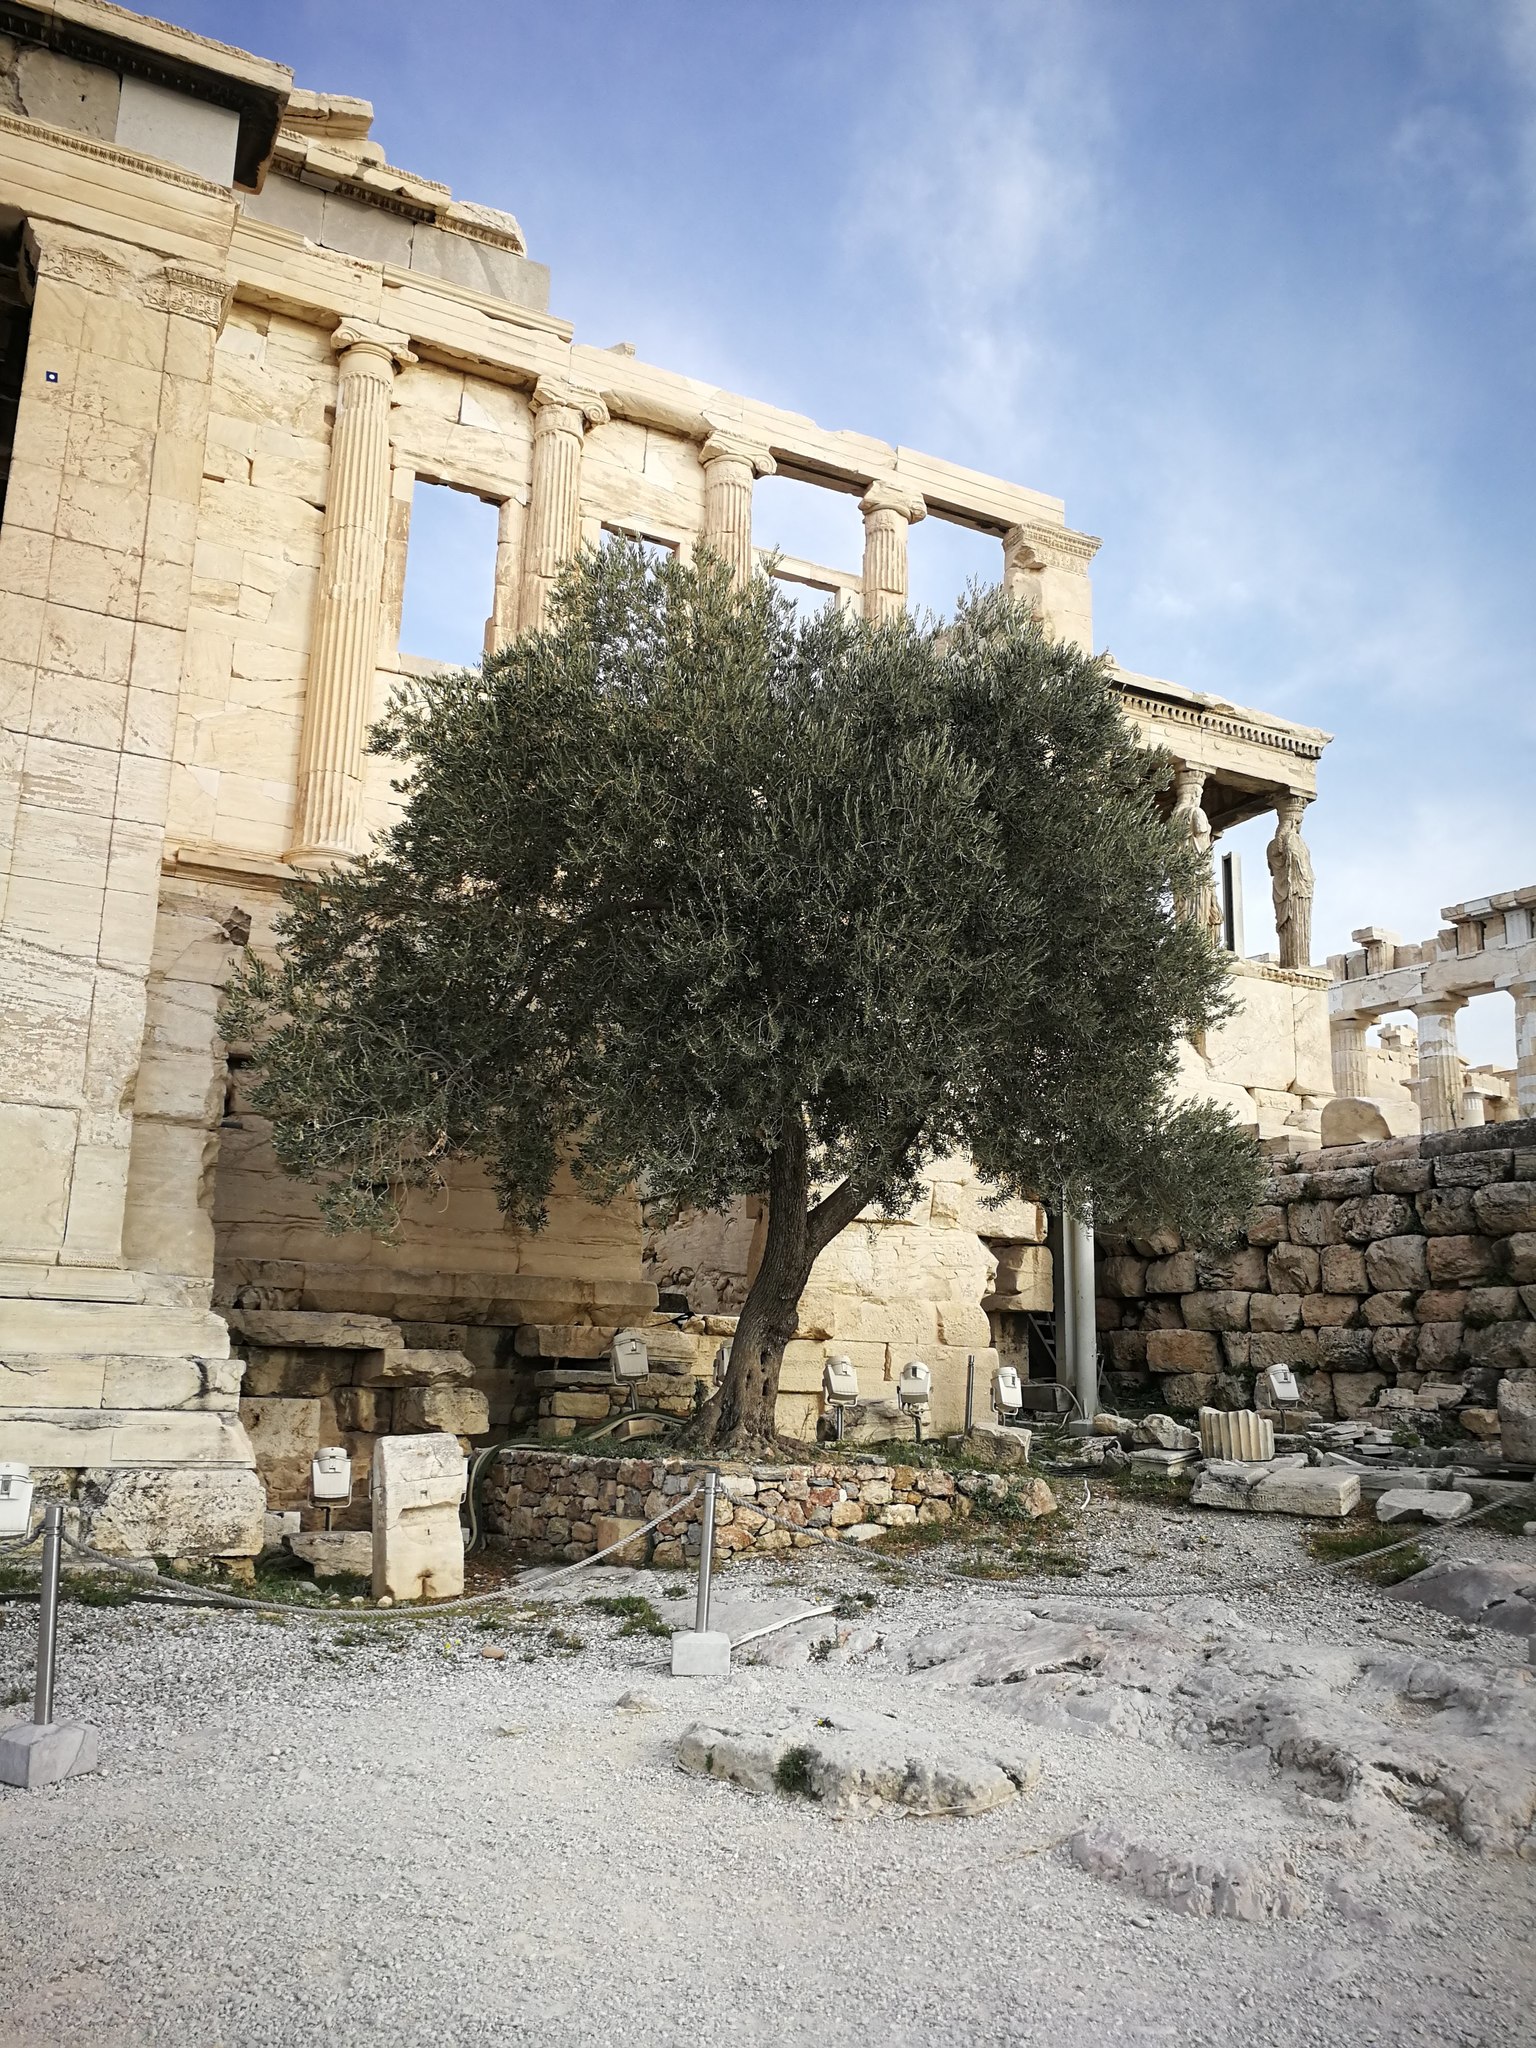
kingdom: Plantae
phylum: Tracheophyta
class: Magnoliopsida
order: Lamiales
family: Oleaceae
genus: Olea
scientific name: Olea europaea
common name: Olive
